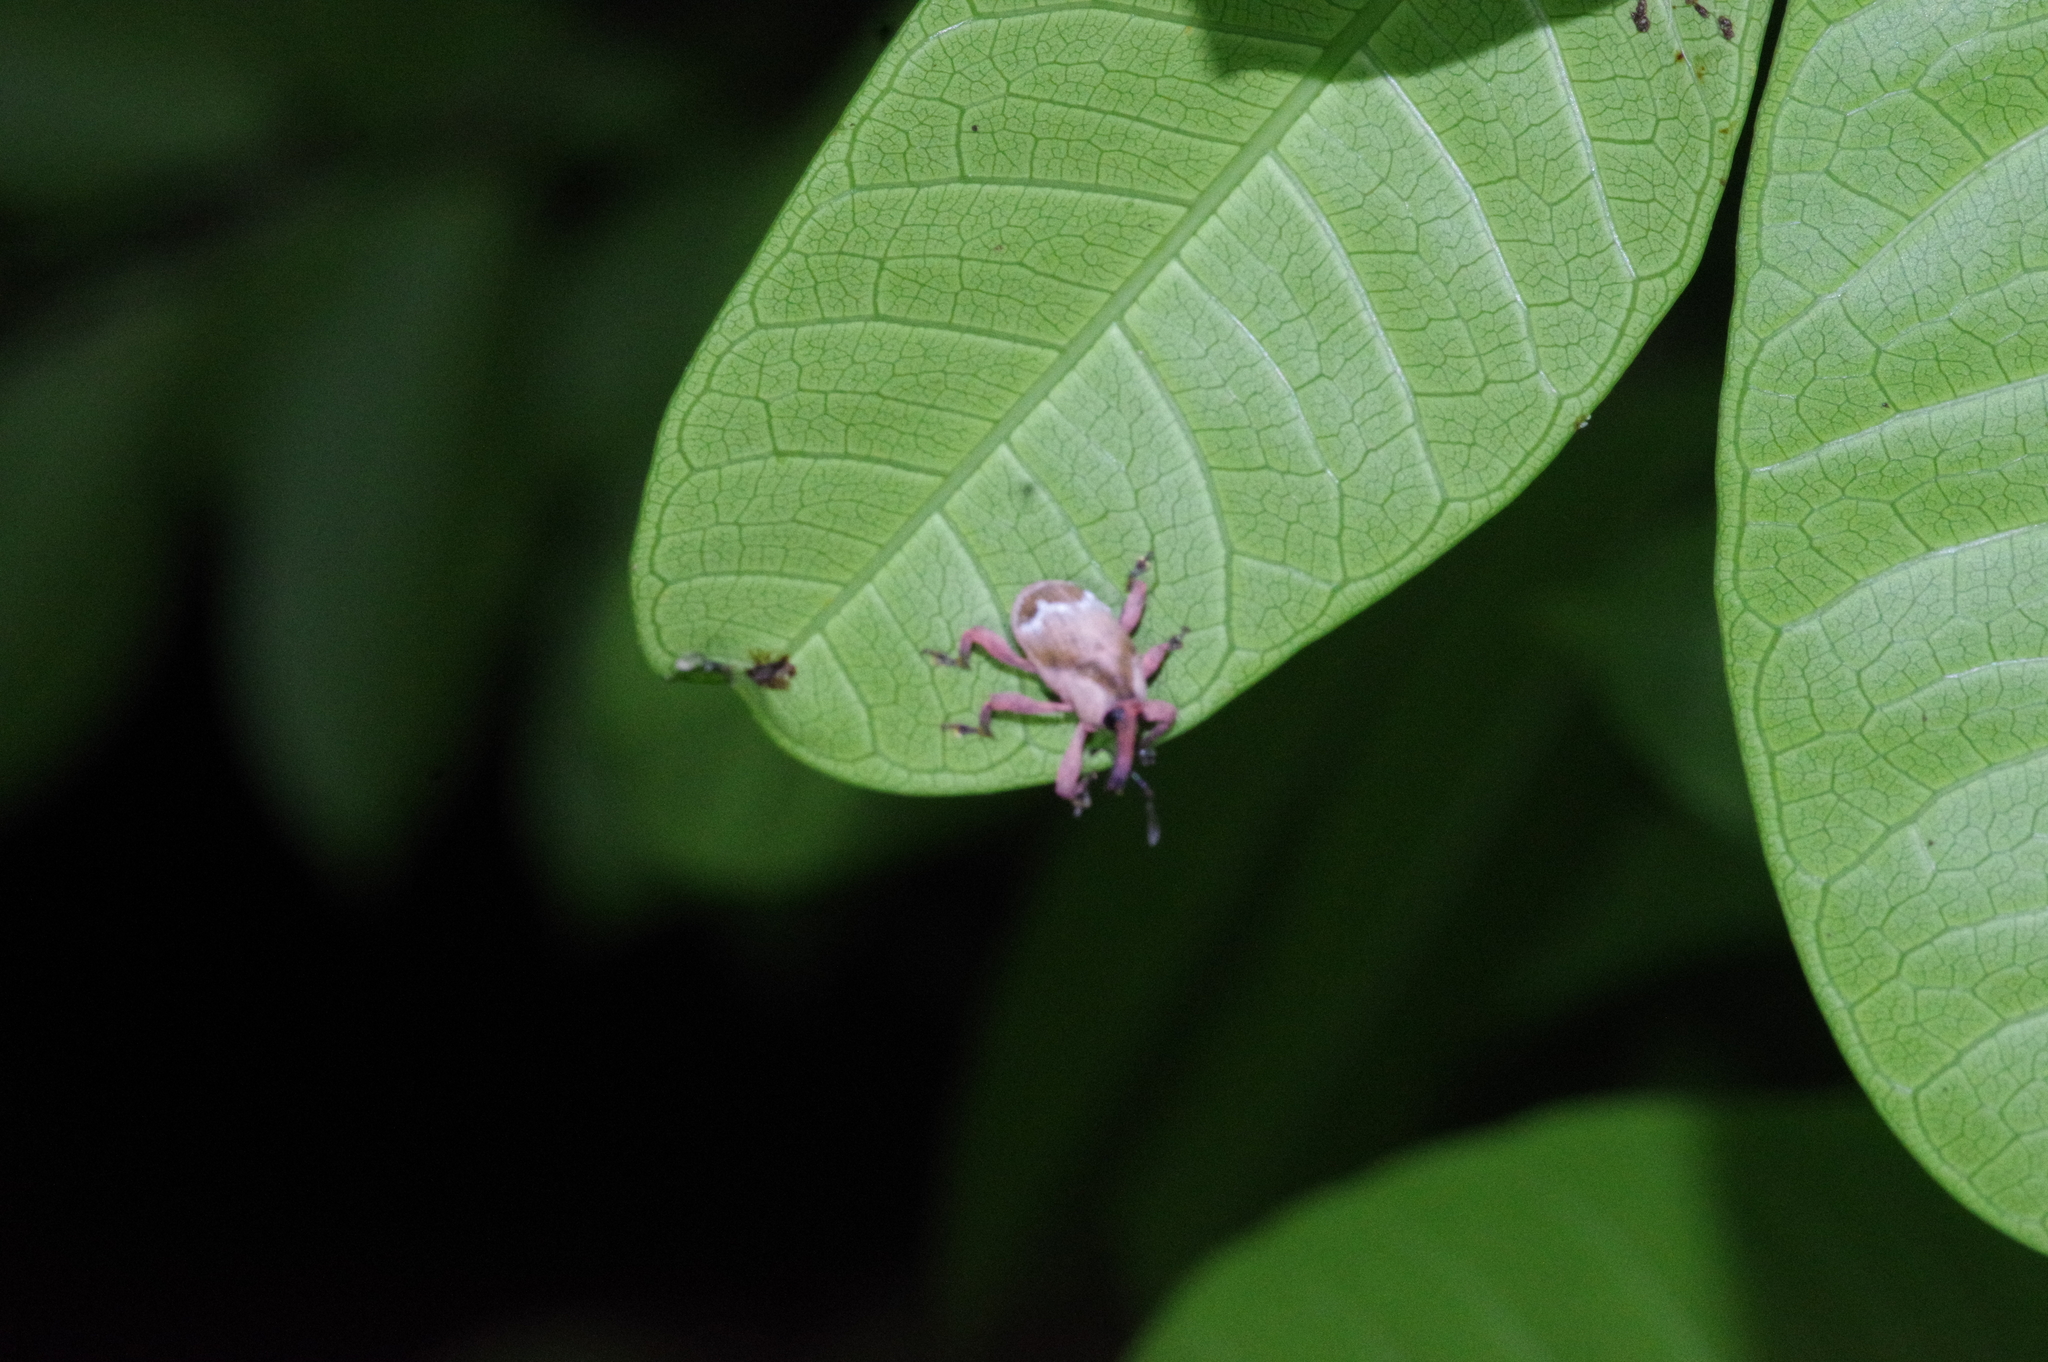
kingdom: Animalia
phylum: Arthropoda
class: Insecta
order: Coleoptera
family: Curculionidae
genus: Aclees
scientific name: Aclees hirayamai
